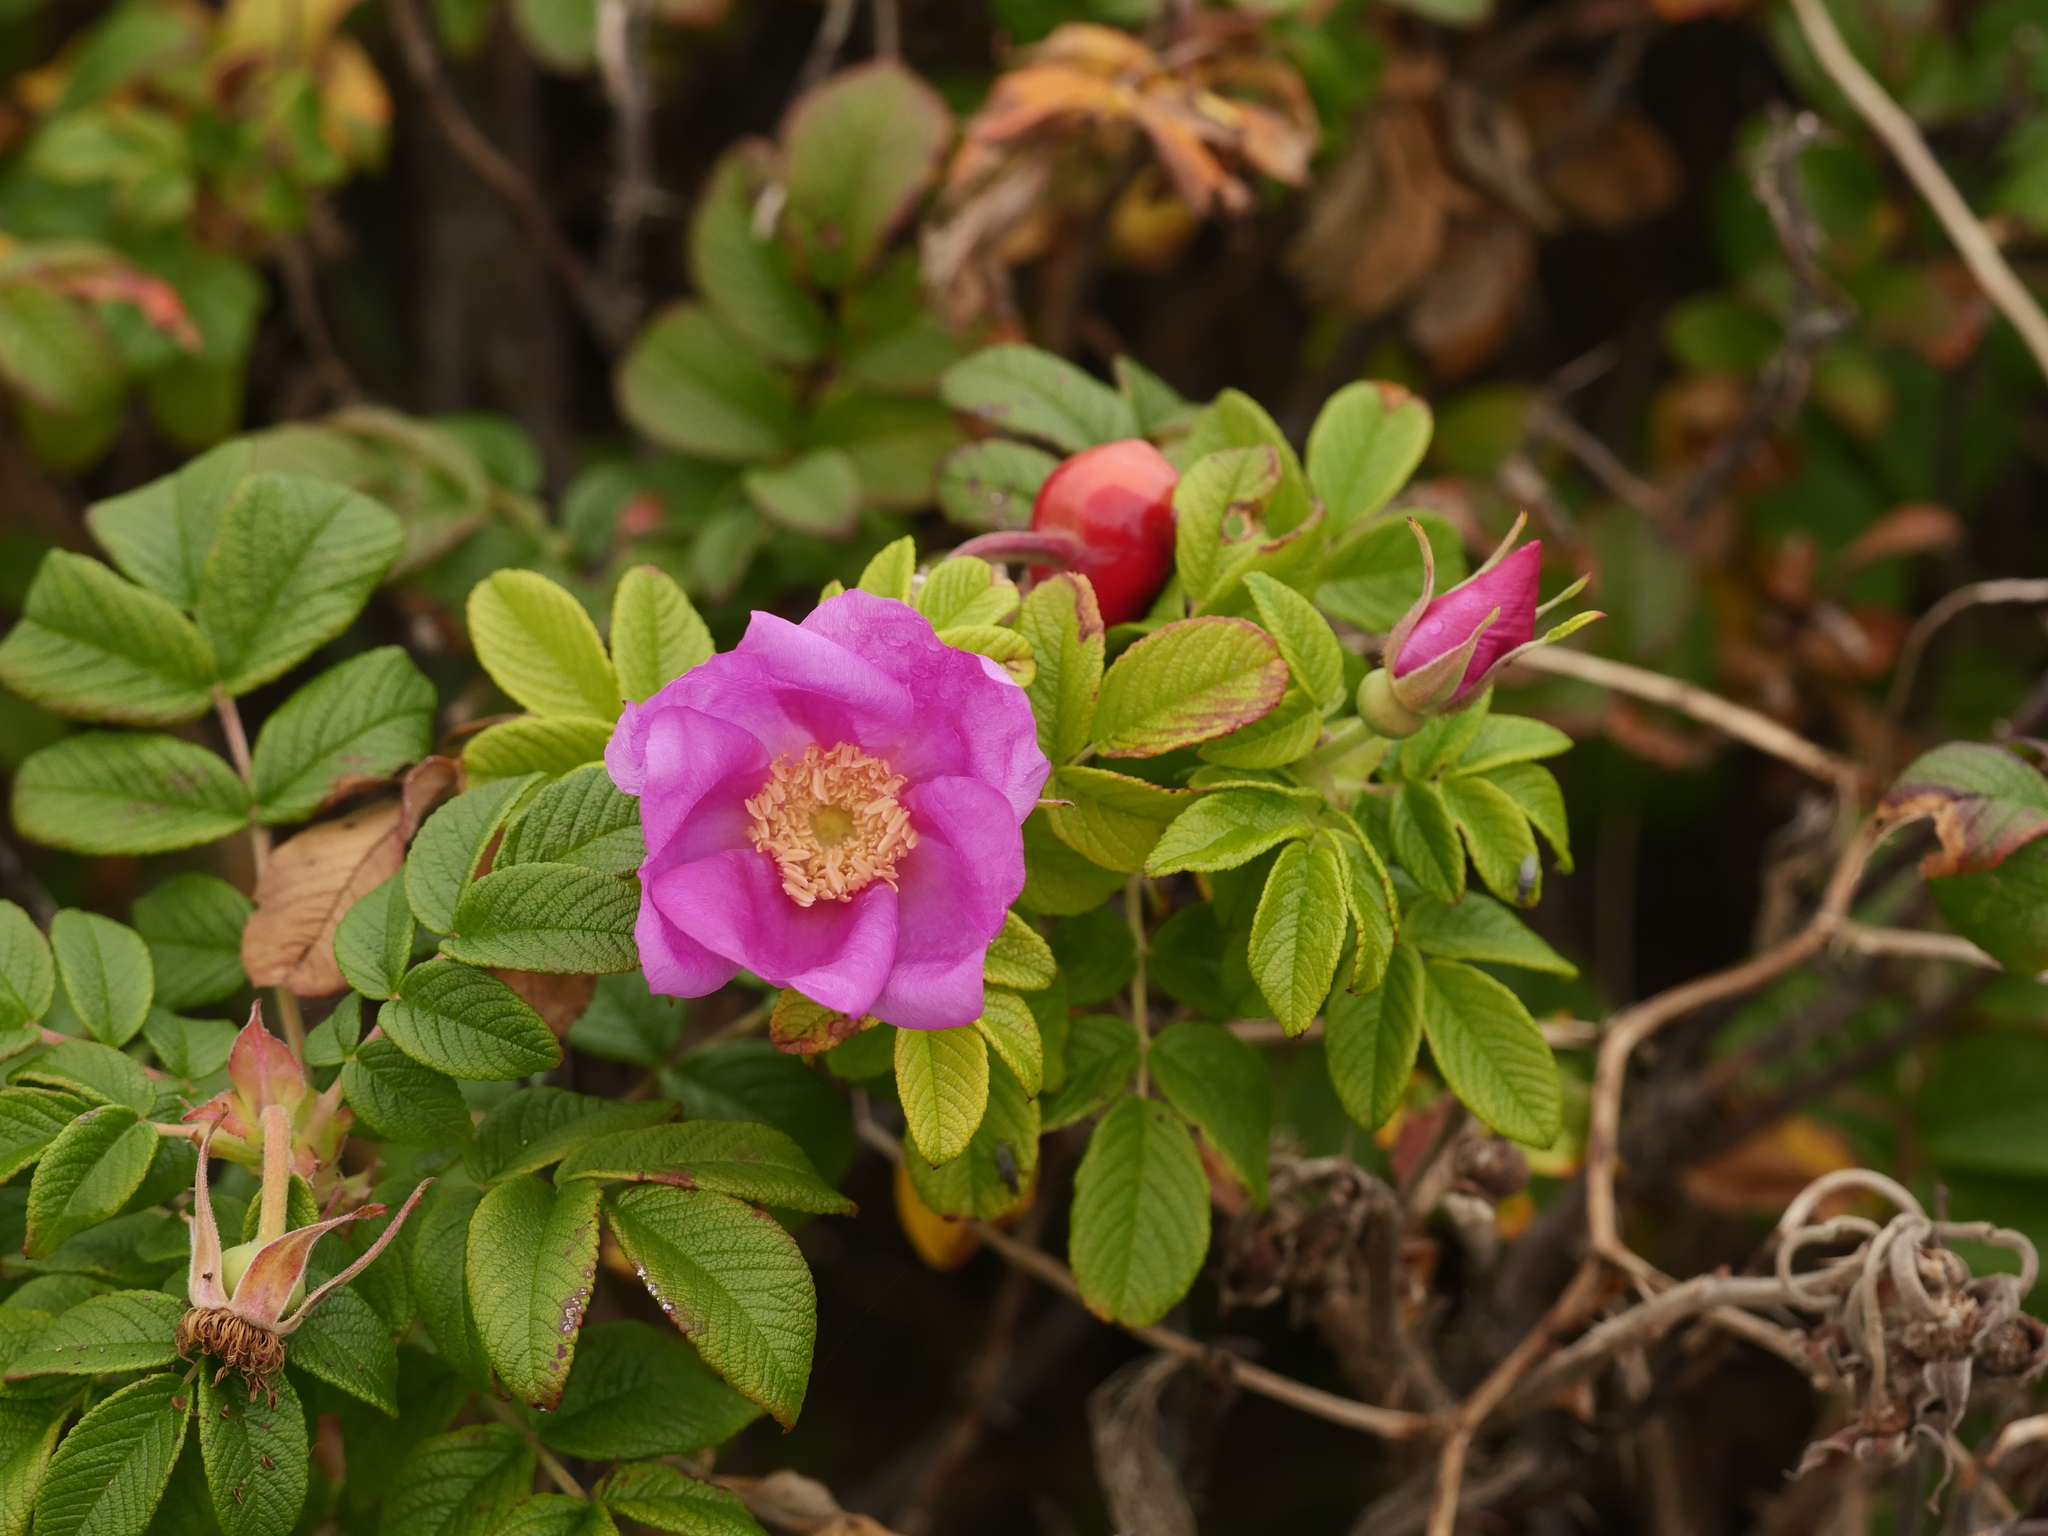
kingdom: Plantae
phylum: Tracheophyta
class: Magnoliopsida
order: Rosales
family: Rosaceae
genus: Rosa
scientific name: Rosa rugosa
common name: Japanese rose
